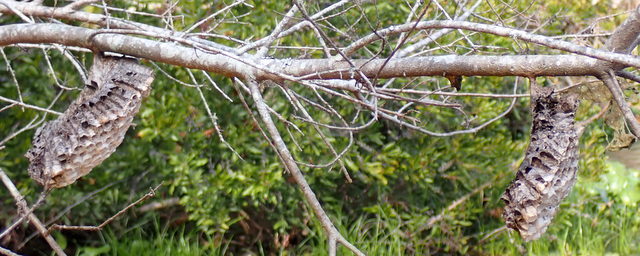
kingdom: Animalia
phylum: Arthropoda
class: Insecta
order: Hymenoptera
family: Eumenidae
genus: Polistes
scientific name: Polistes annularis
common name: Ringed paper wasp
